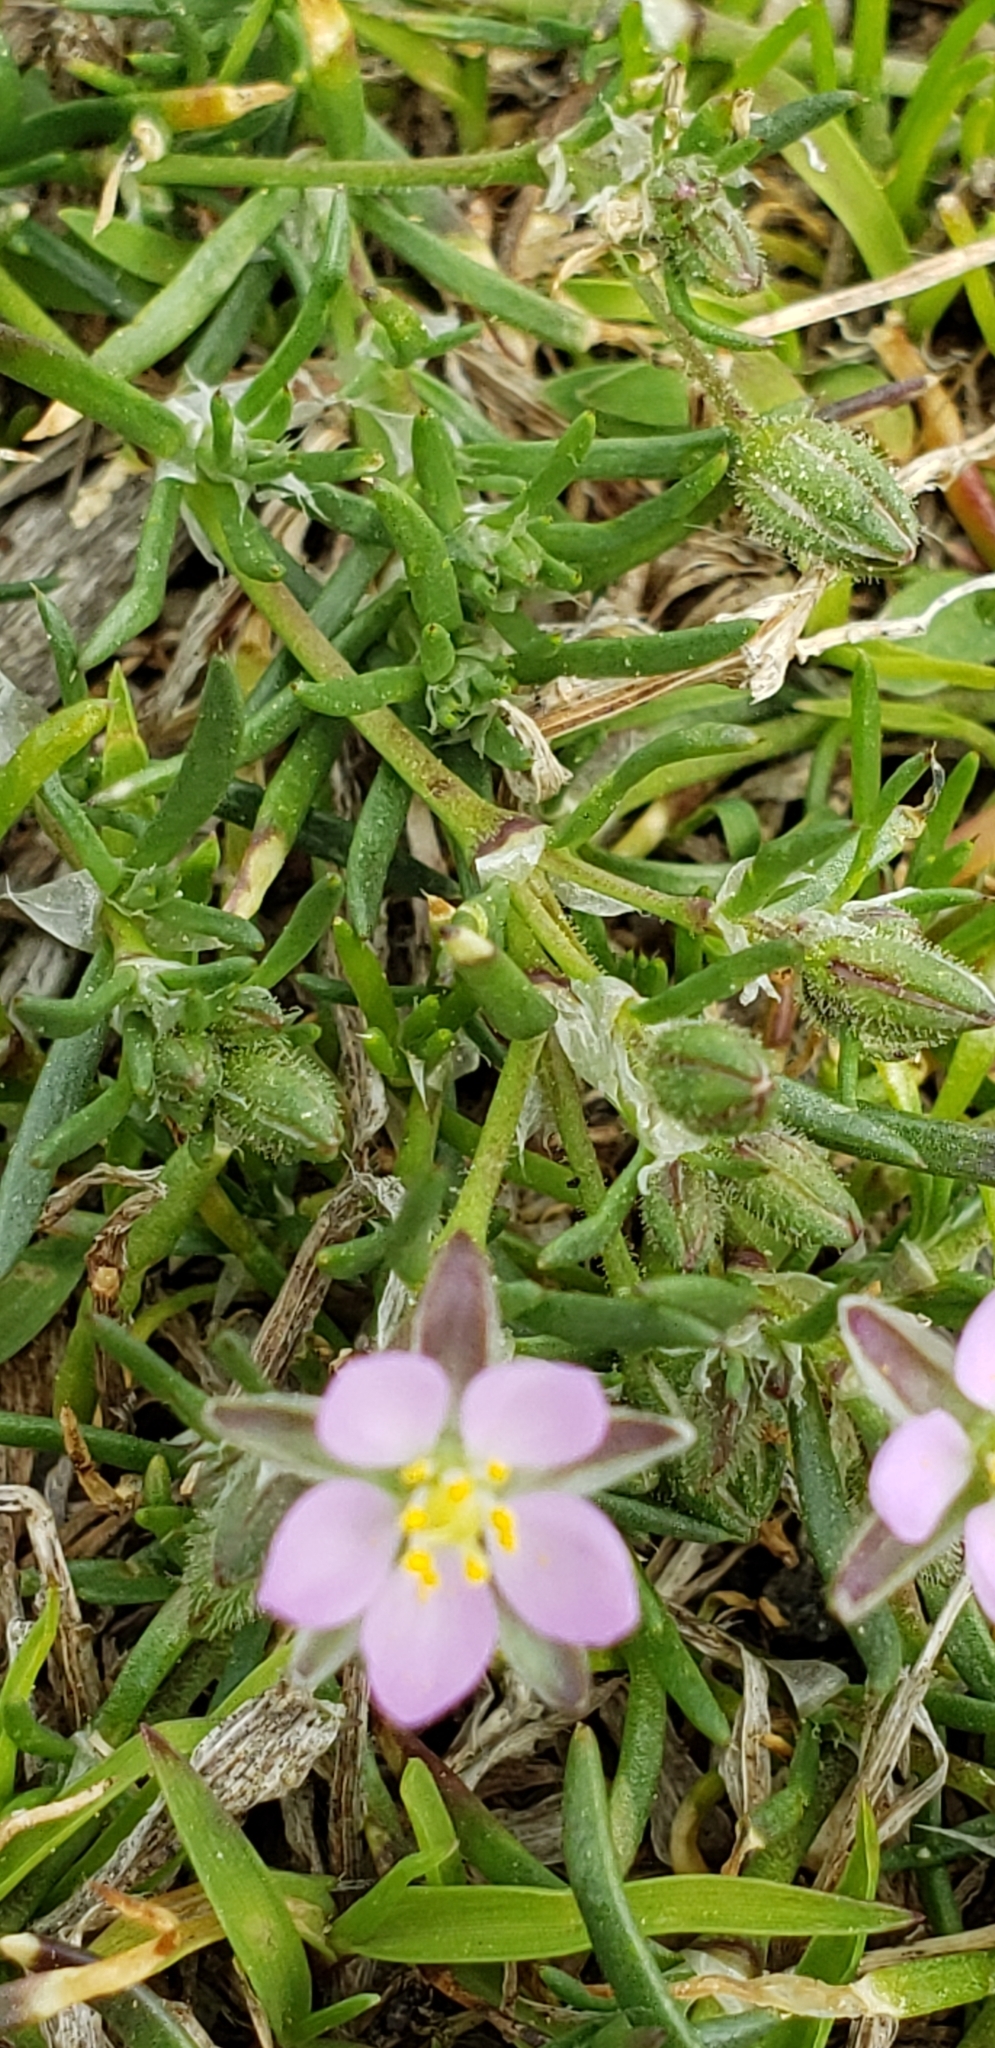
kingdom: Plantae
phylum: Tracheophyta
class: Magnoliopsida
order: Caryophyllales
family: Caryophyllaceae
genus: Spergularia
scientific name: Spergularia rubra
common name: Red sand-spurrey
